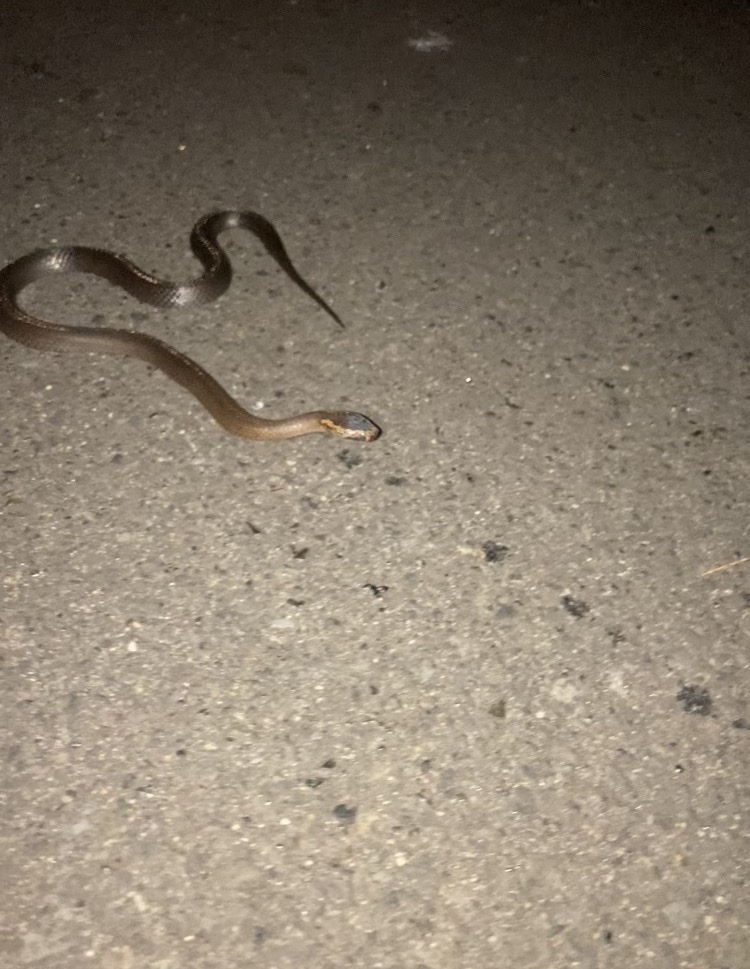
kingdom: Animalia
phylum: Chordata
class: Squamata
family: Elapidae
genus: Cacophis
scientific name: Cacophis squamulosus
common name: Golden crowned snake
